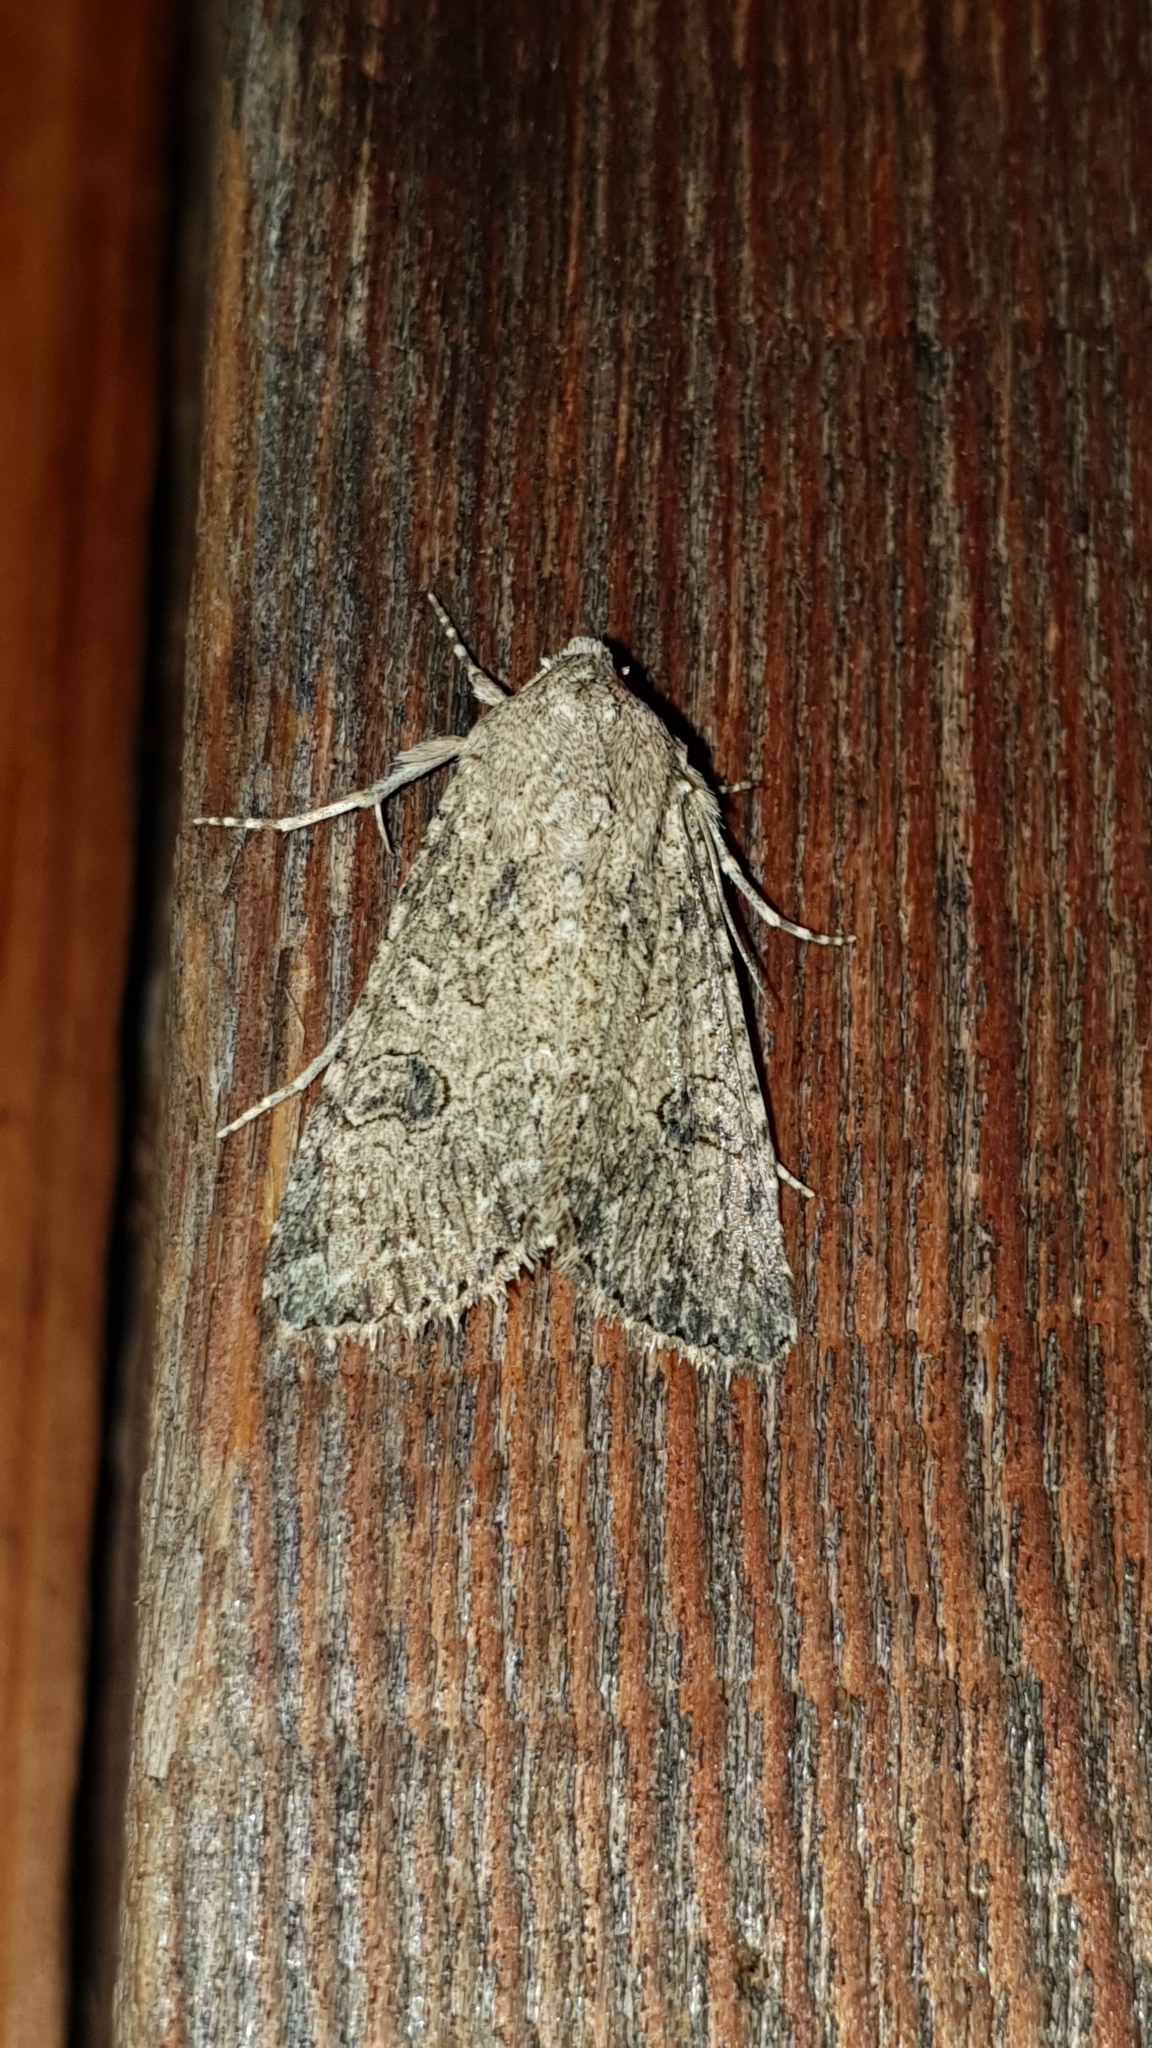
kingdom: Animalia
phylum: Arthropoda
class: Insecta
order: Lepidoptera
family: Noctuidae
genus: Anarta
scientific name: Anarta trifolii
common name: Clover cutworm moth
